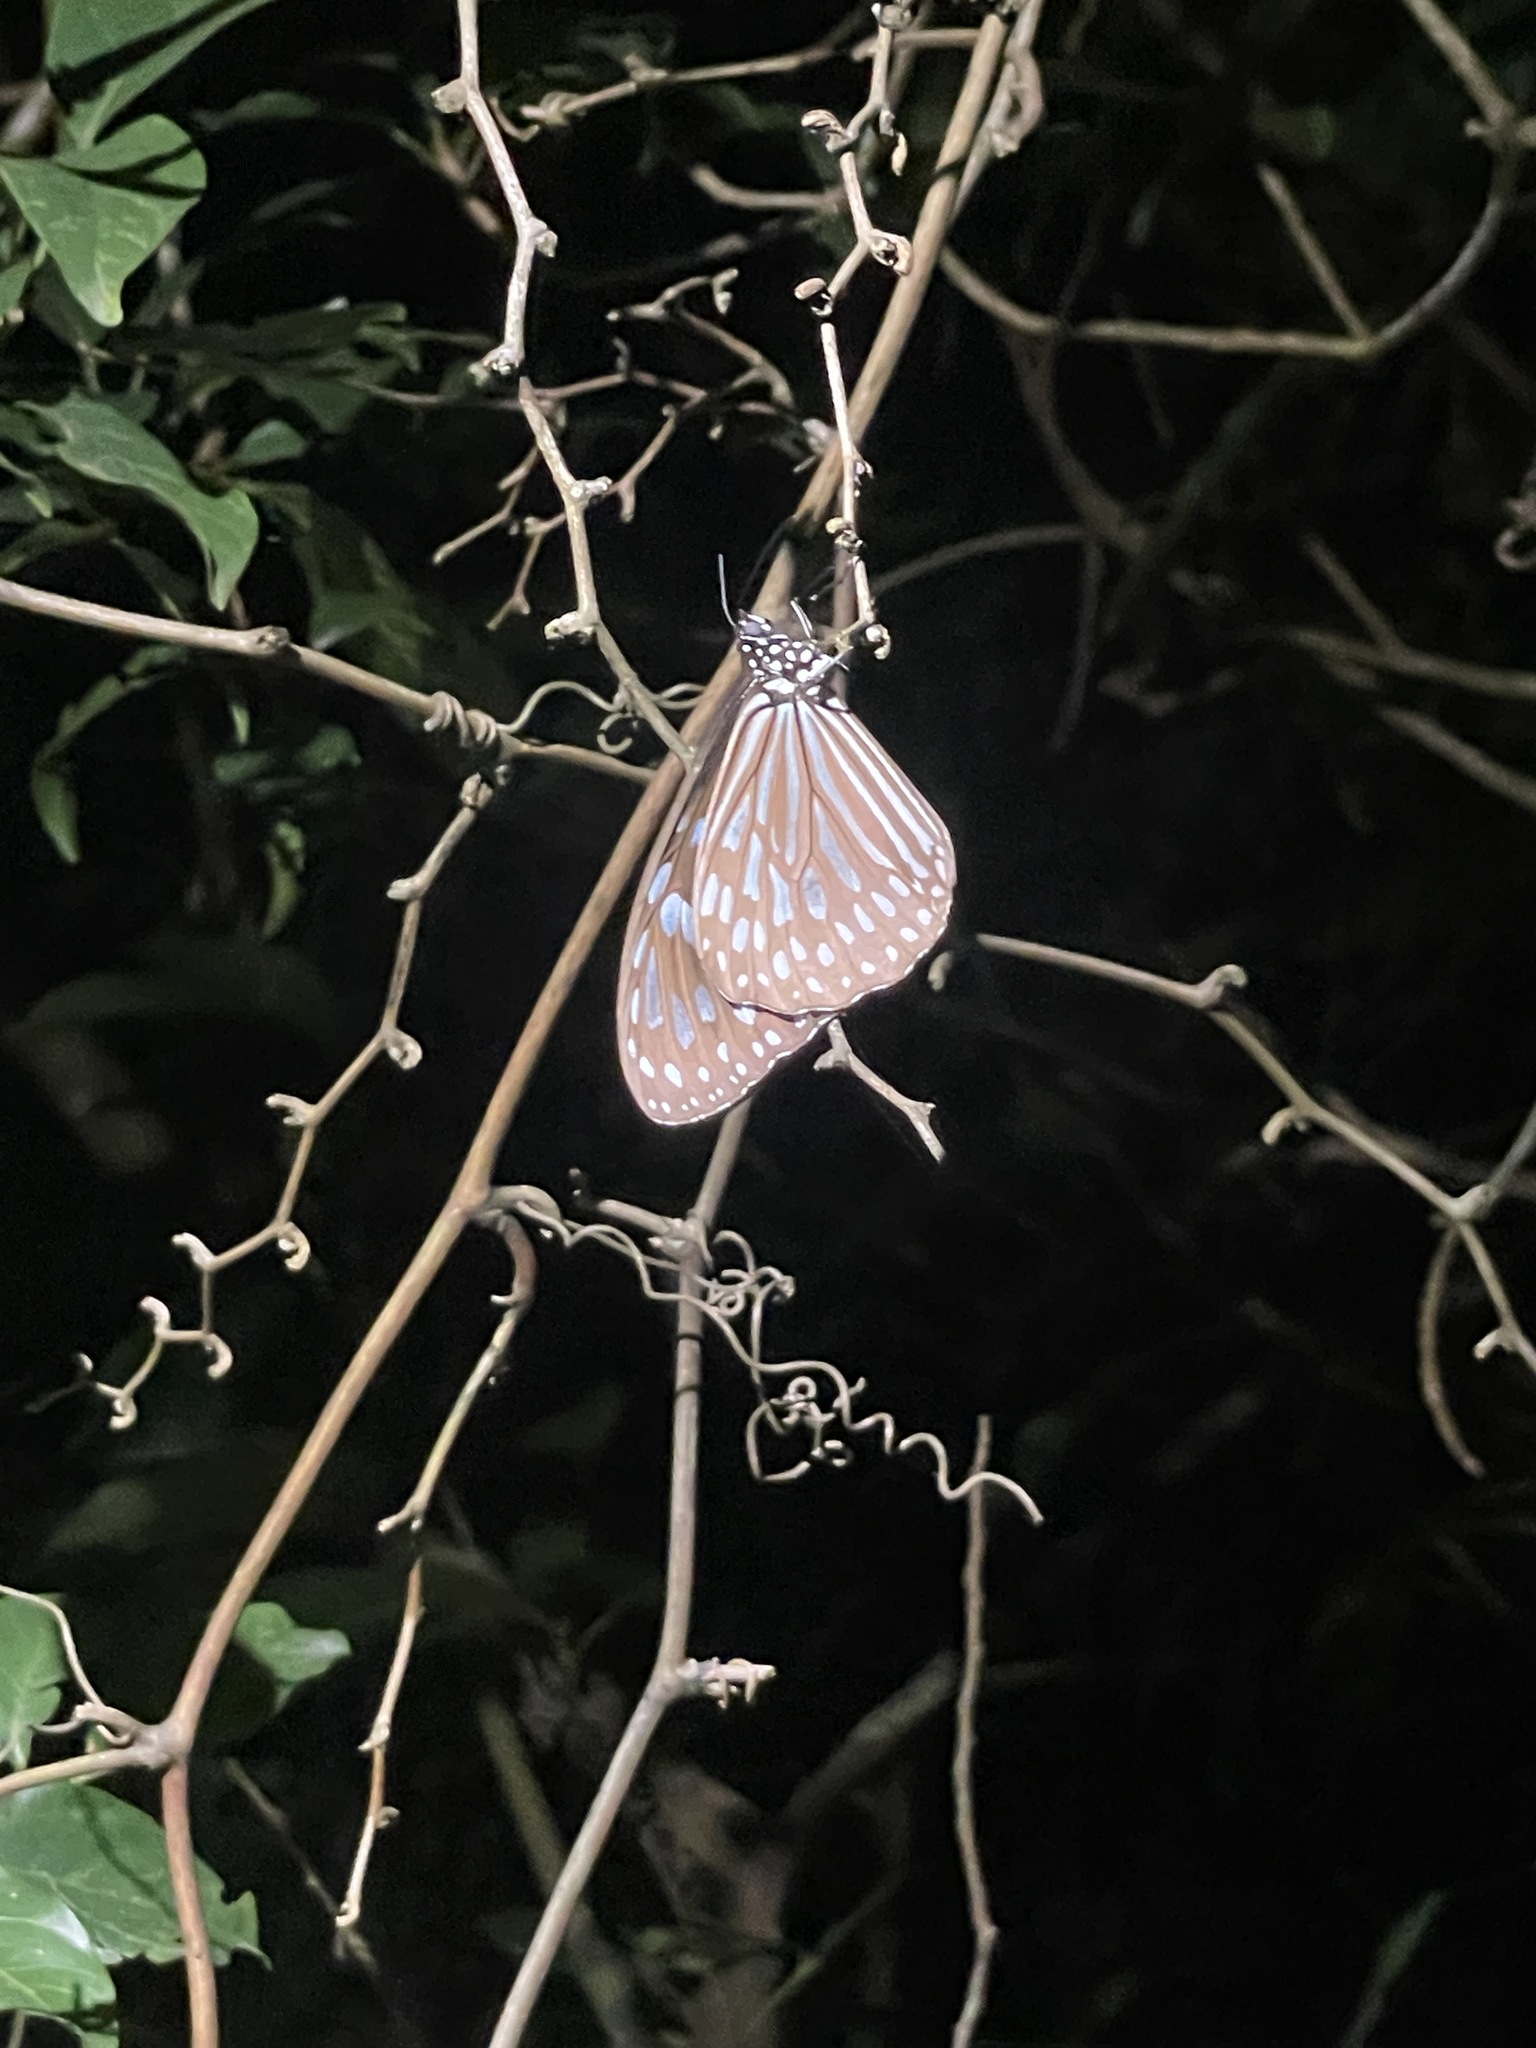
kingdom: Animalia
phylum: Arthropoda
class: Insecta
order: Lepidoptera
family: Nymphalidae
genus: Ideopsis
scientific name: Ideopsis similis
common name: Ceylon blue glassy tiger
